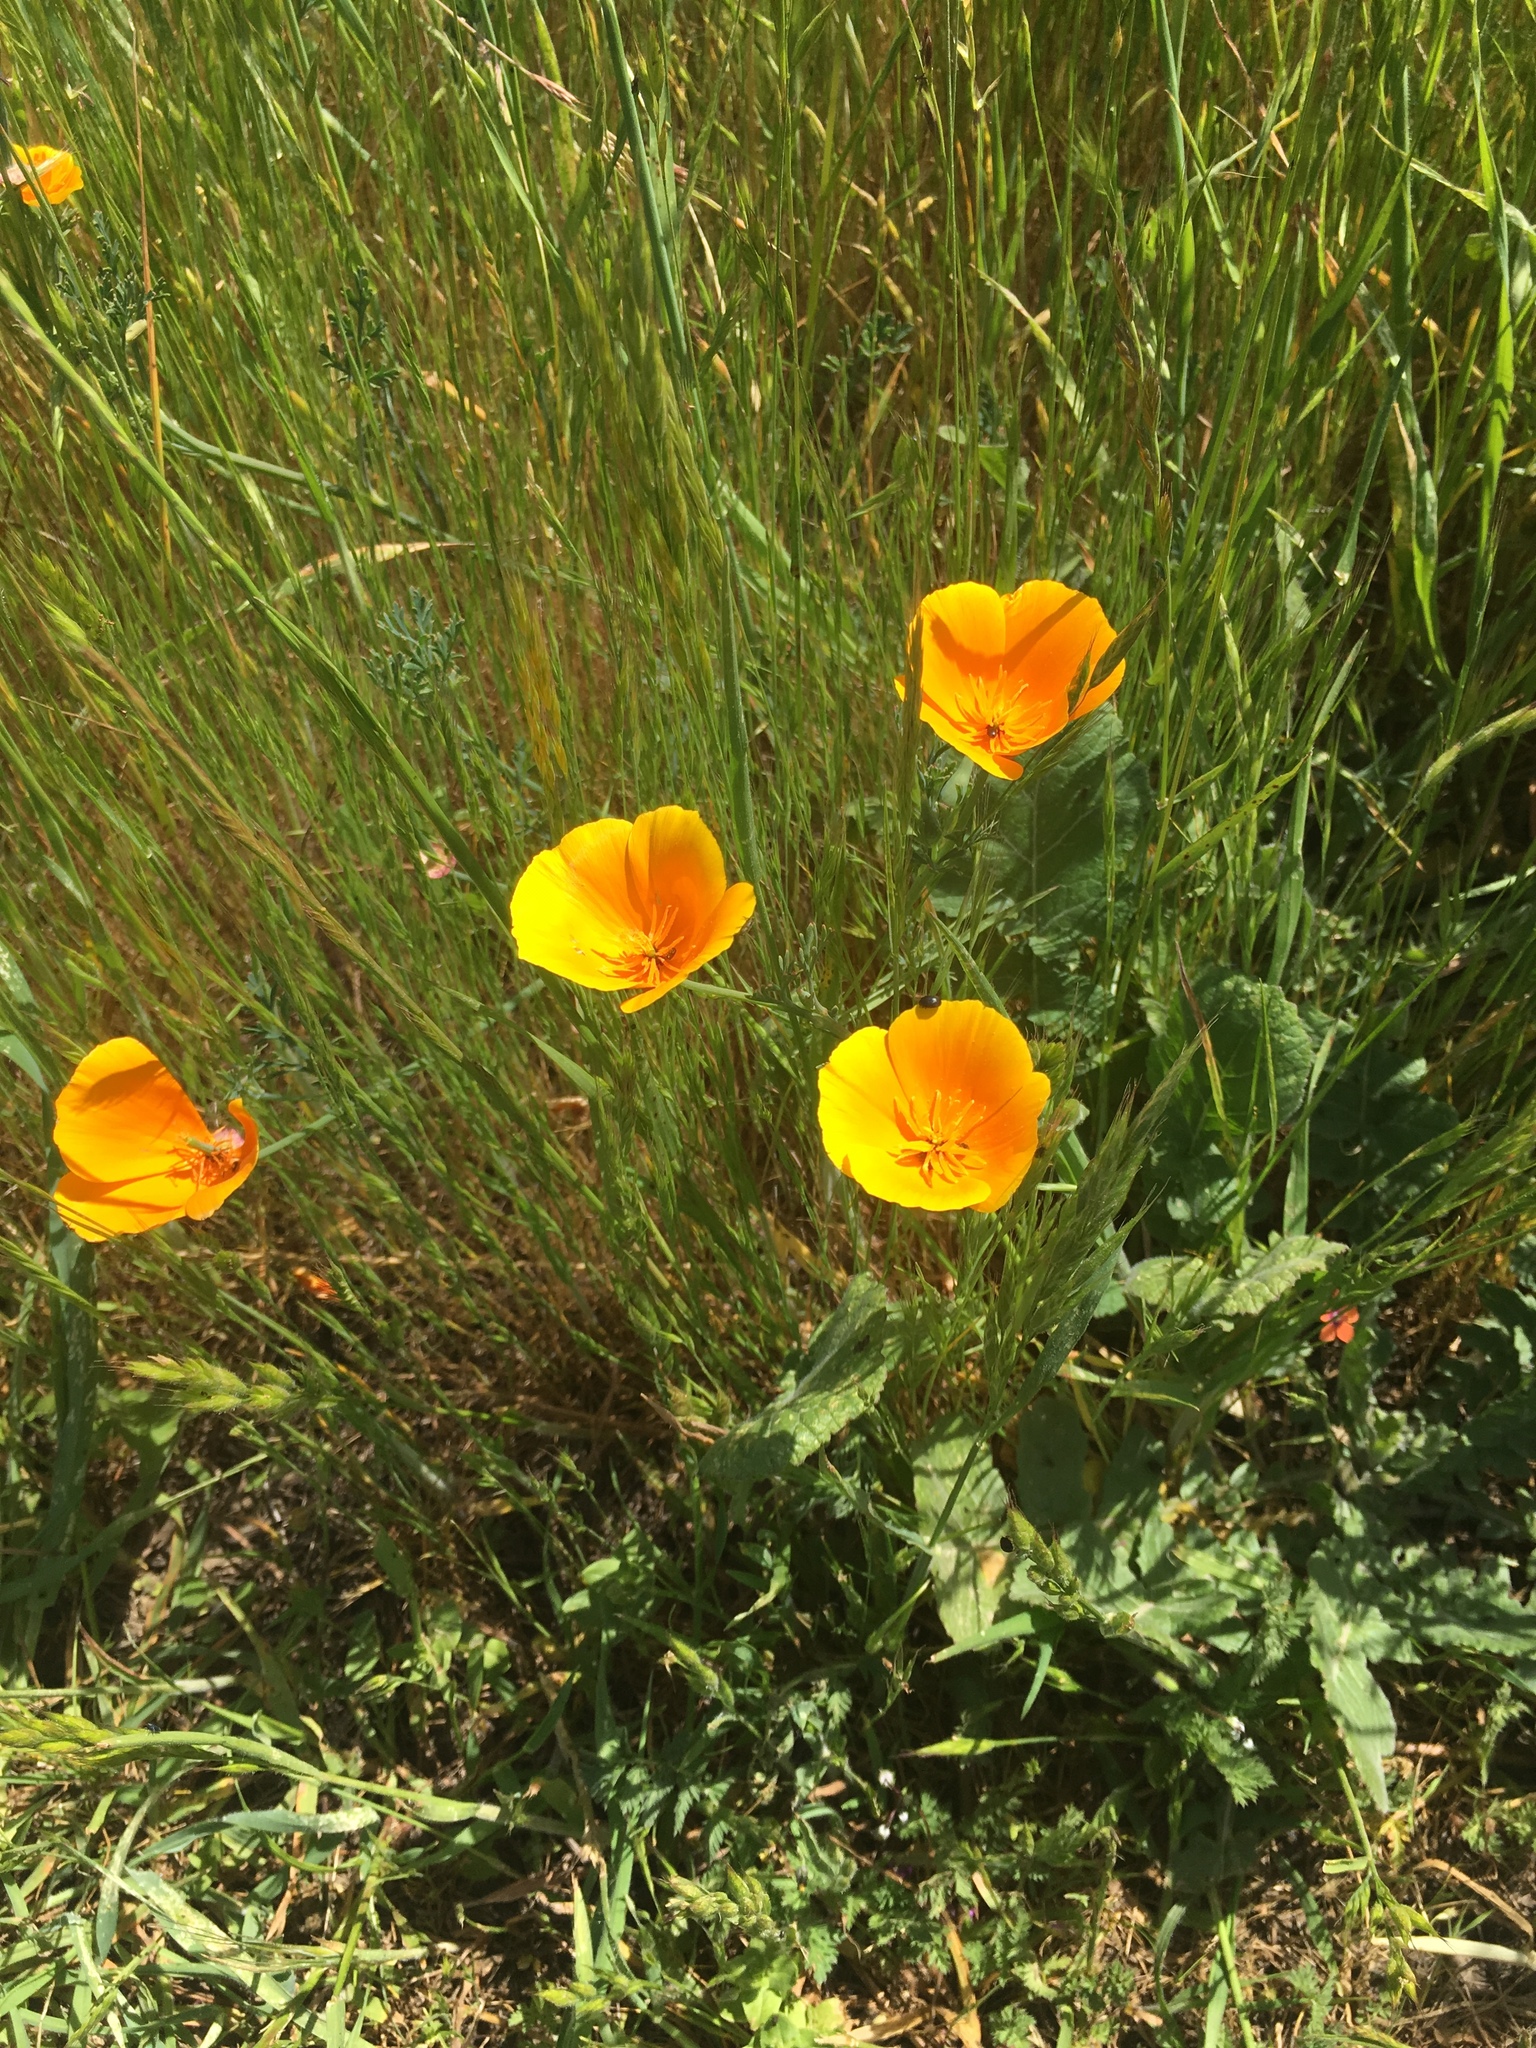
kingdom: Plantae
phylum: Tracheophyta
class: Magnoliopsida
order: Ranunculales
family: Papaveraceae
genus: Eschscholzia
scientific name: Eschscholzia californica
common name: California poppy
